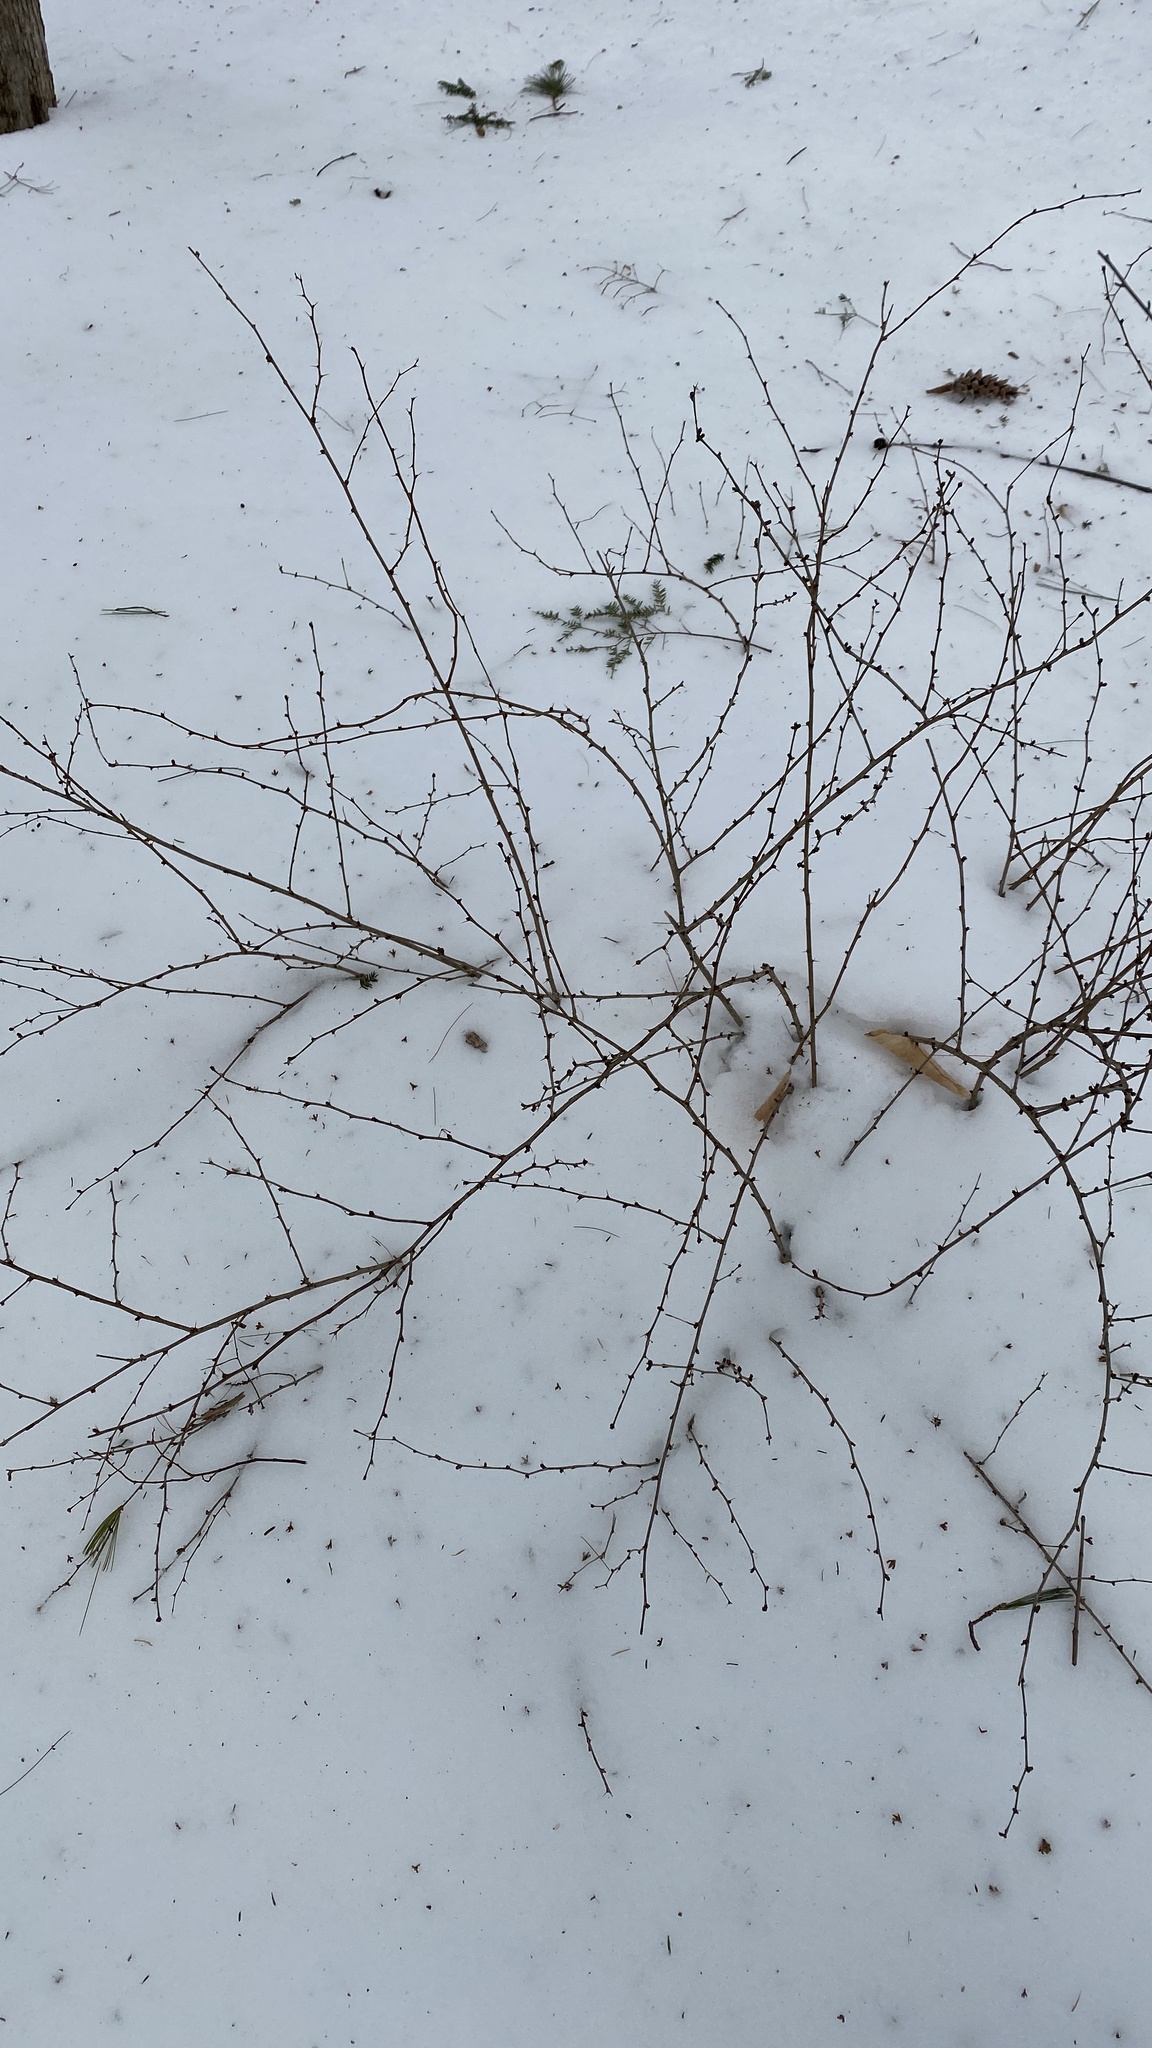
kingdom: Plantae
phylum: Tracheophyta
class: Magnoliopsida
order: Ranunculales
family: Berberidaceae
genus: Berberis
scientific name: Berberis thunbergii
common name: Japanese barberry
